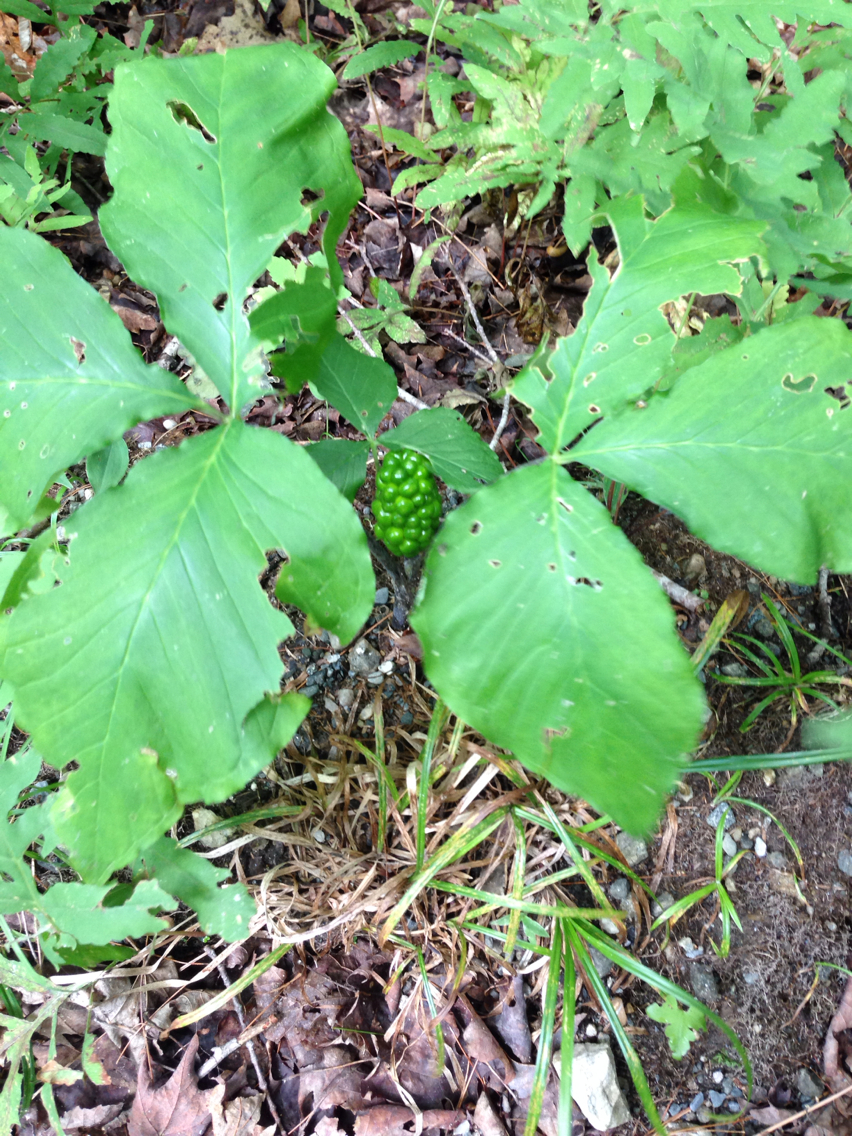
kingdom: Plantae
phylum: Tracheophyta
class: Liliopsida
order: Alismatales
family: Araceae
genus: Arisaema
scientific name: Arisaema triphyllum
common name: Jack-in-the-pulpit
